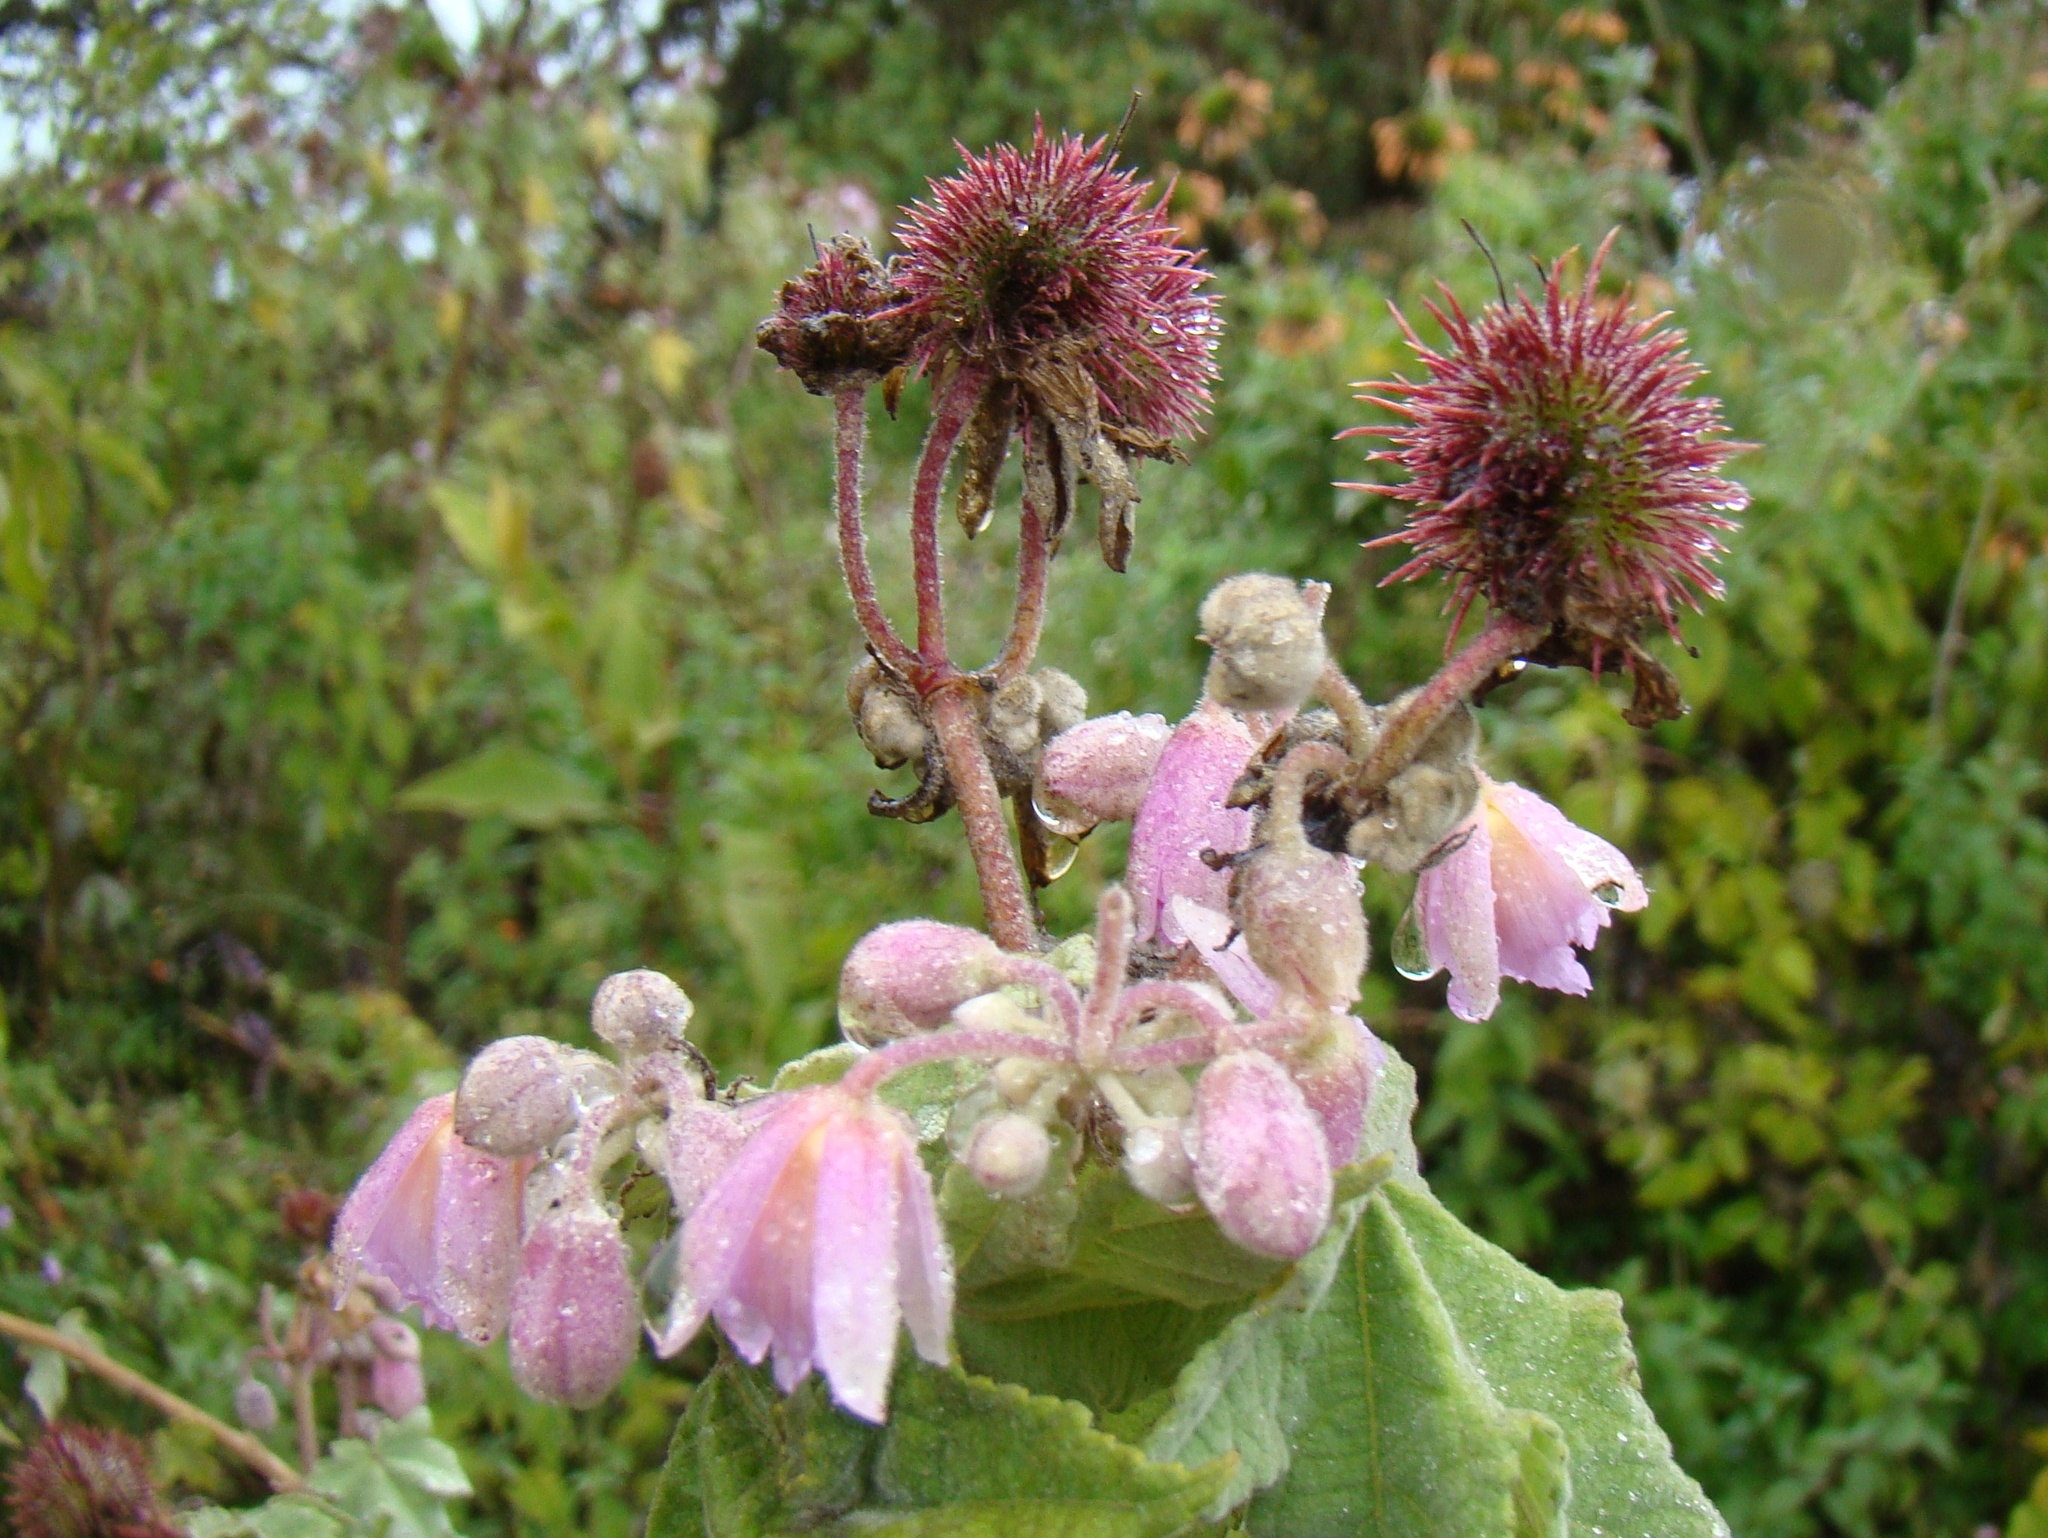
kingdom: Plantae
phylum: Tracheophyta
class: Magnoliopsida
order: Malvales
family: Malvaceae
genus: Sparrmannia
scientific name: Sparrmannia ricinocarpa
